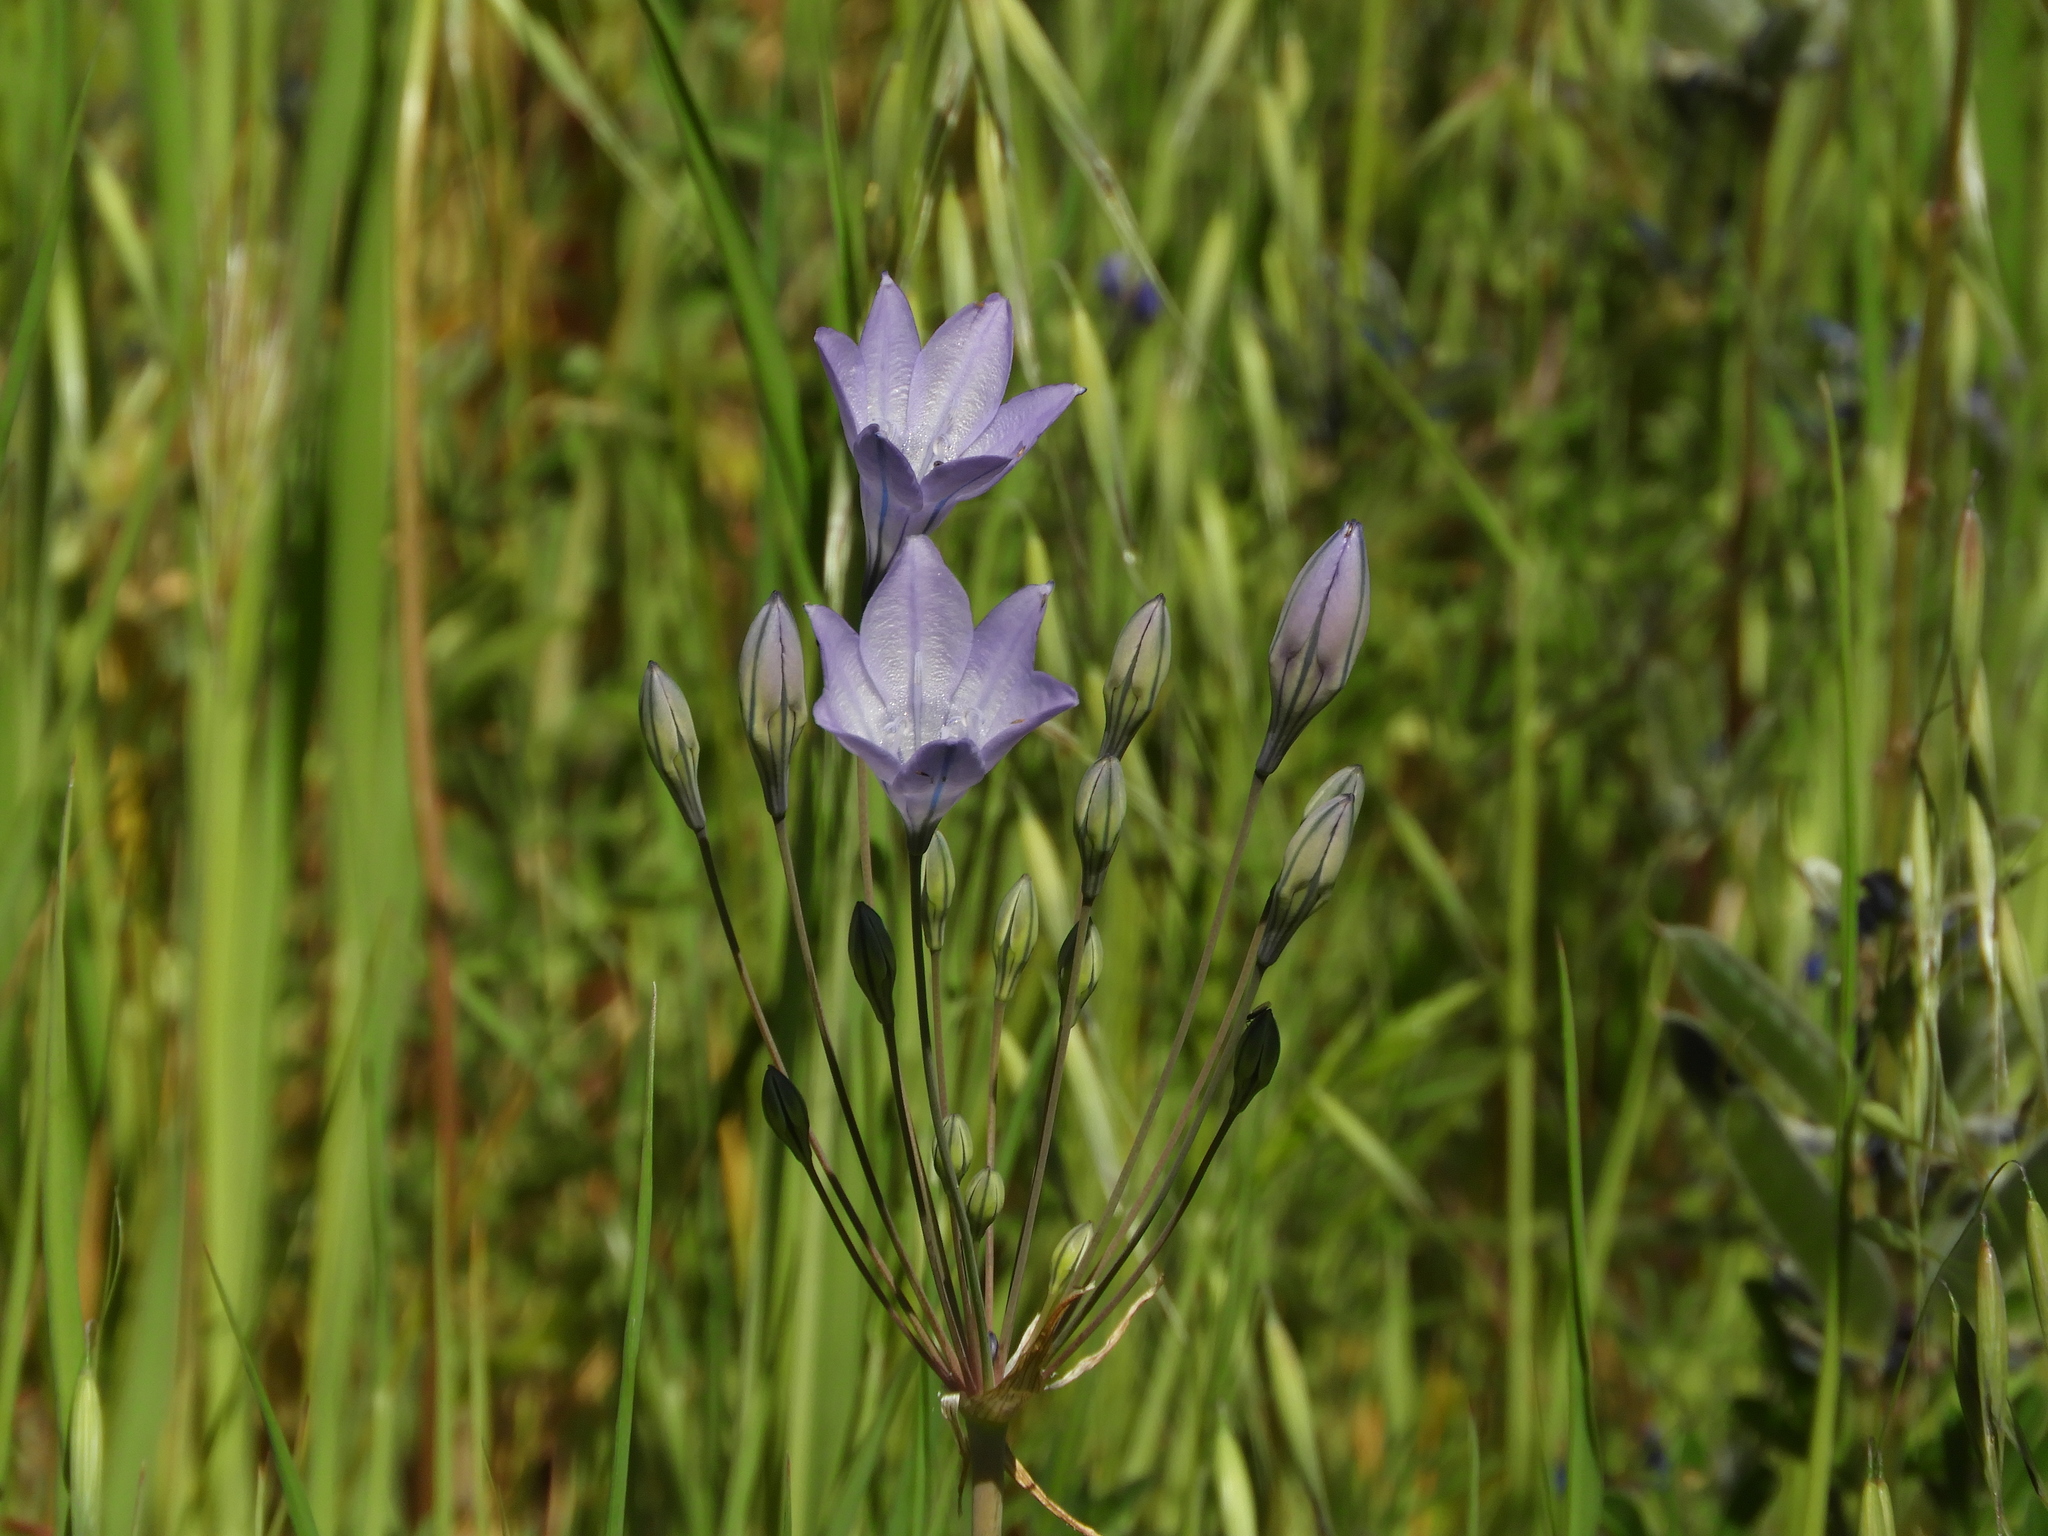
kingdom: Plantae
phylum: Tracheophyta
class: Liliopsida
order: Asparagales
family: Asparagaceae
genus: Triteleia
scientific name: Triteleia laxa
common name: Triplet-lily
